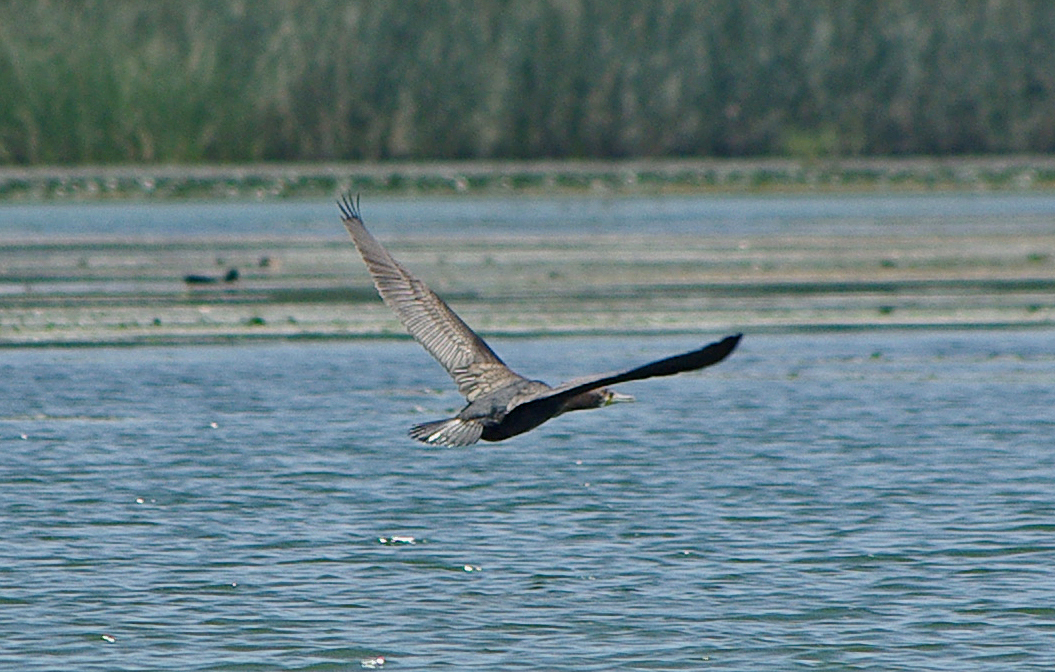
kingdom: Animalia
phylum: Chordata
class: Aves
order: Suliformes
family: Phalacrocoracidae
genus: Phalacrocorax
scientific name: Phalacrocorax carbo
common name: Great cormorant
